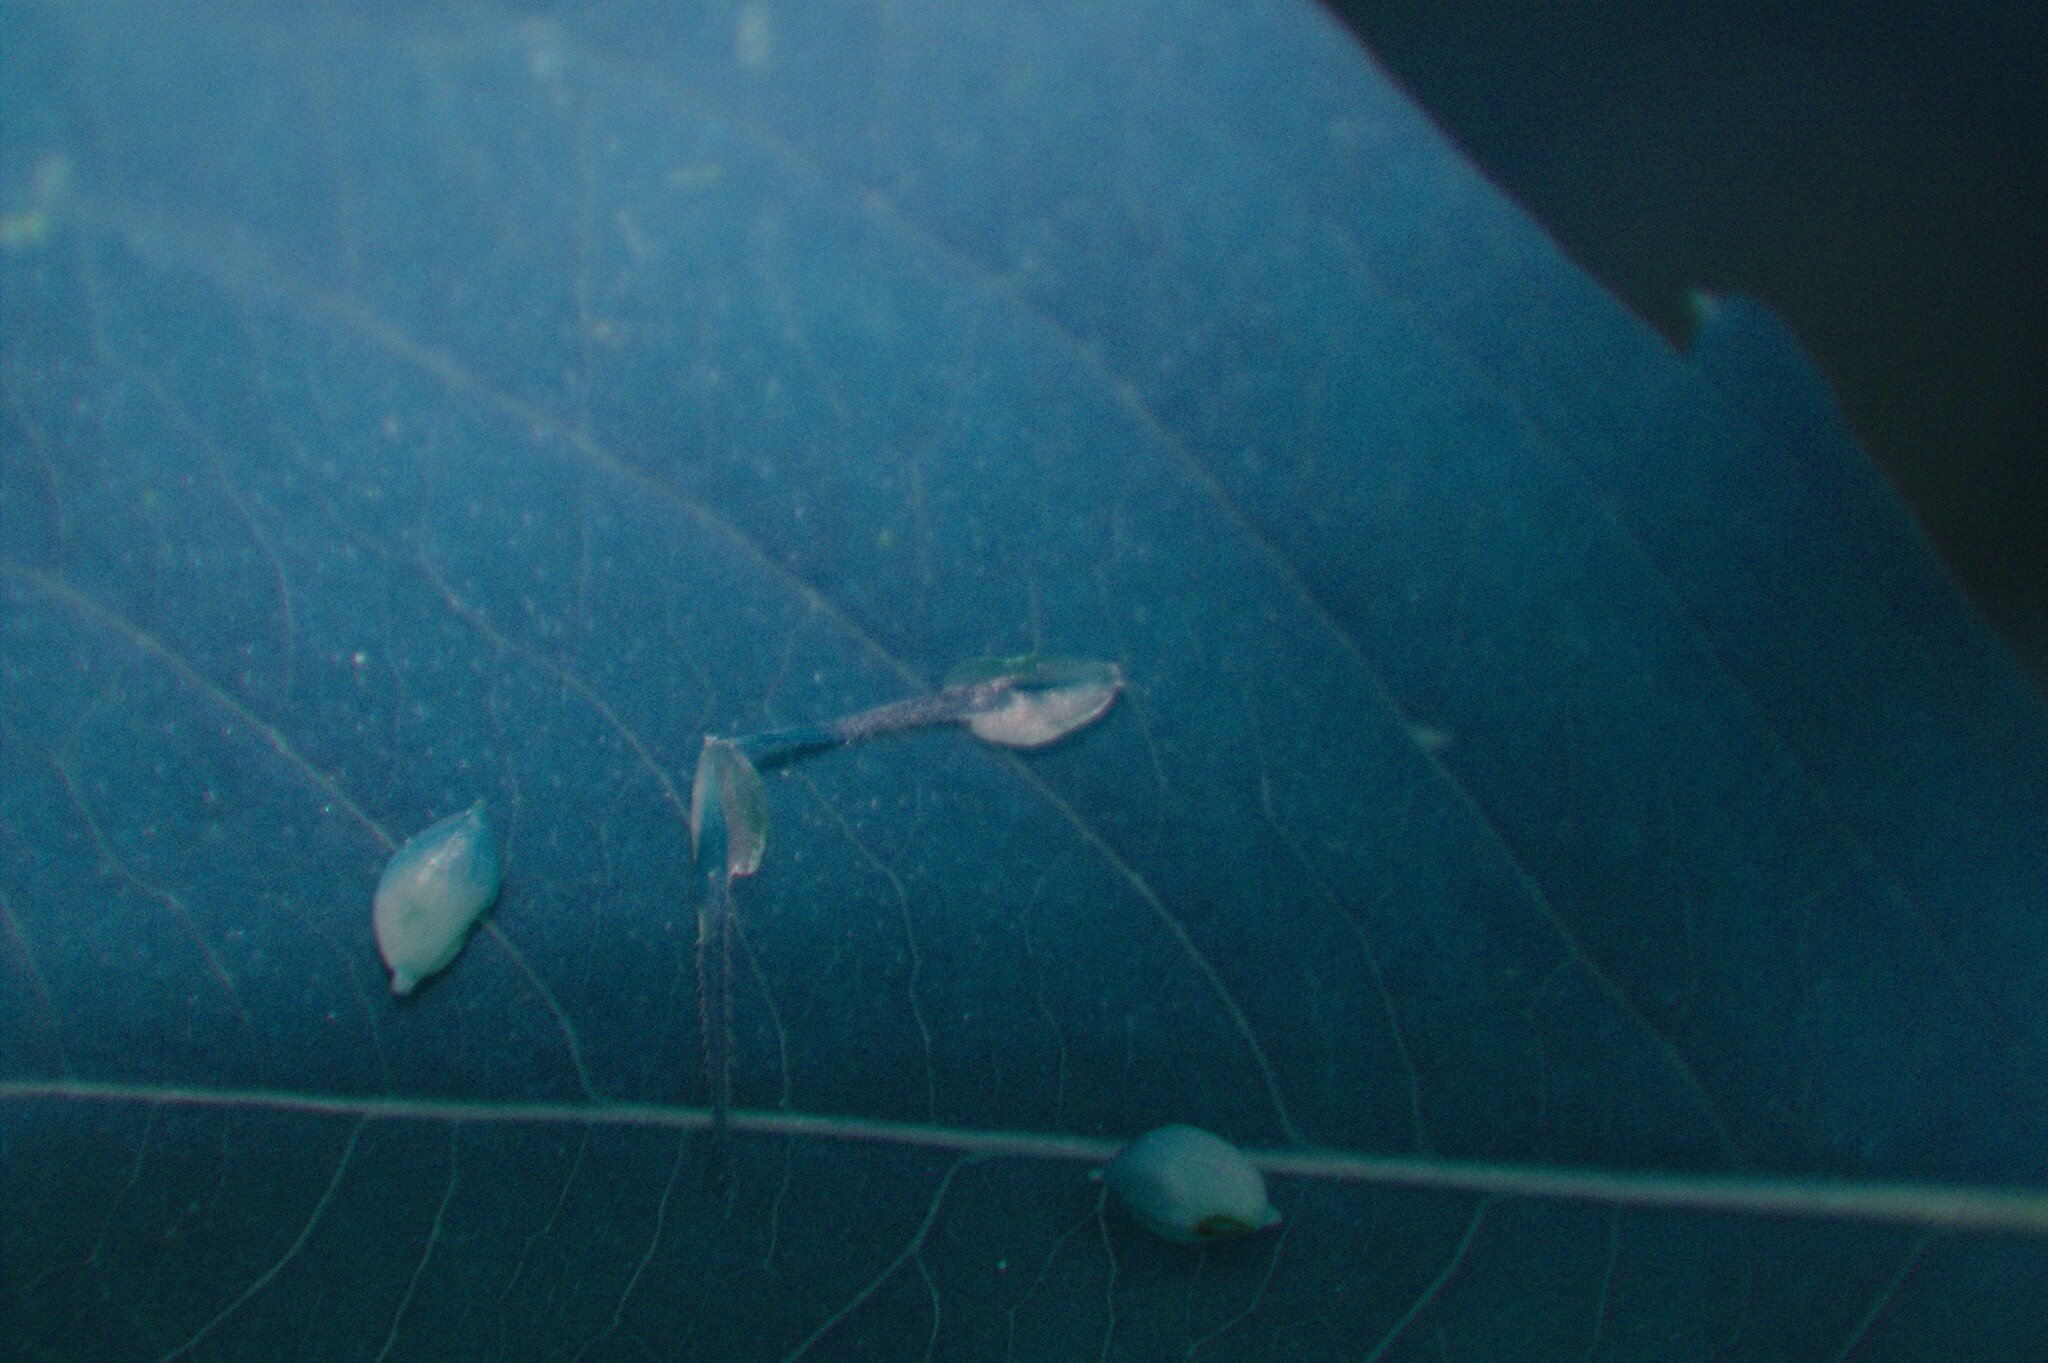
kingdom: Plantae
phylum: Tracheophyta
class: Liliopsida
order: Poales
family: Cyperaceae
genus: Carex
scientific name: Carex crinita
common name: Fringed sedge
